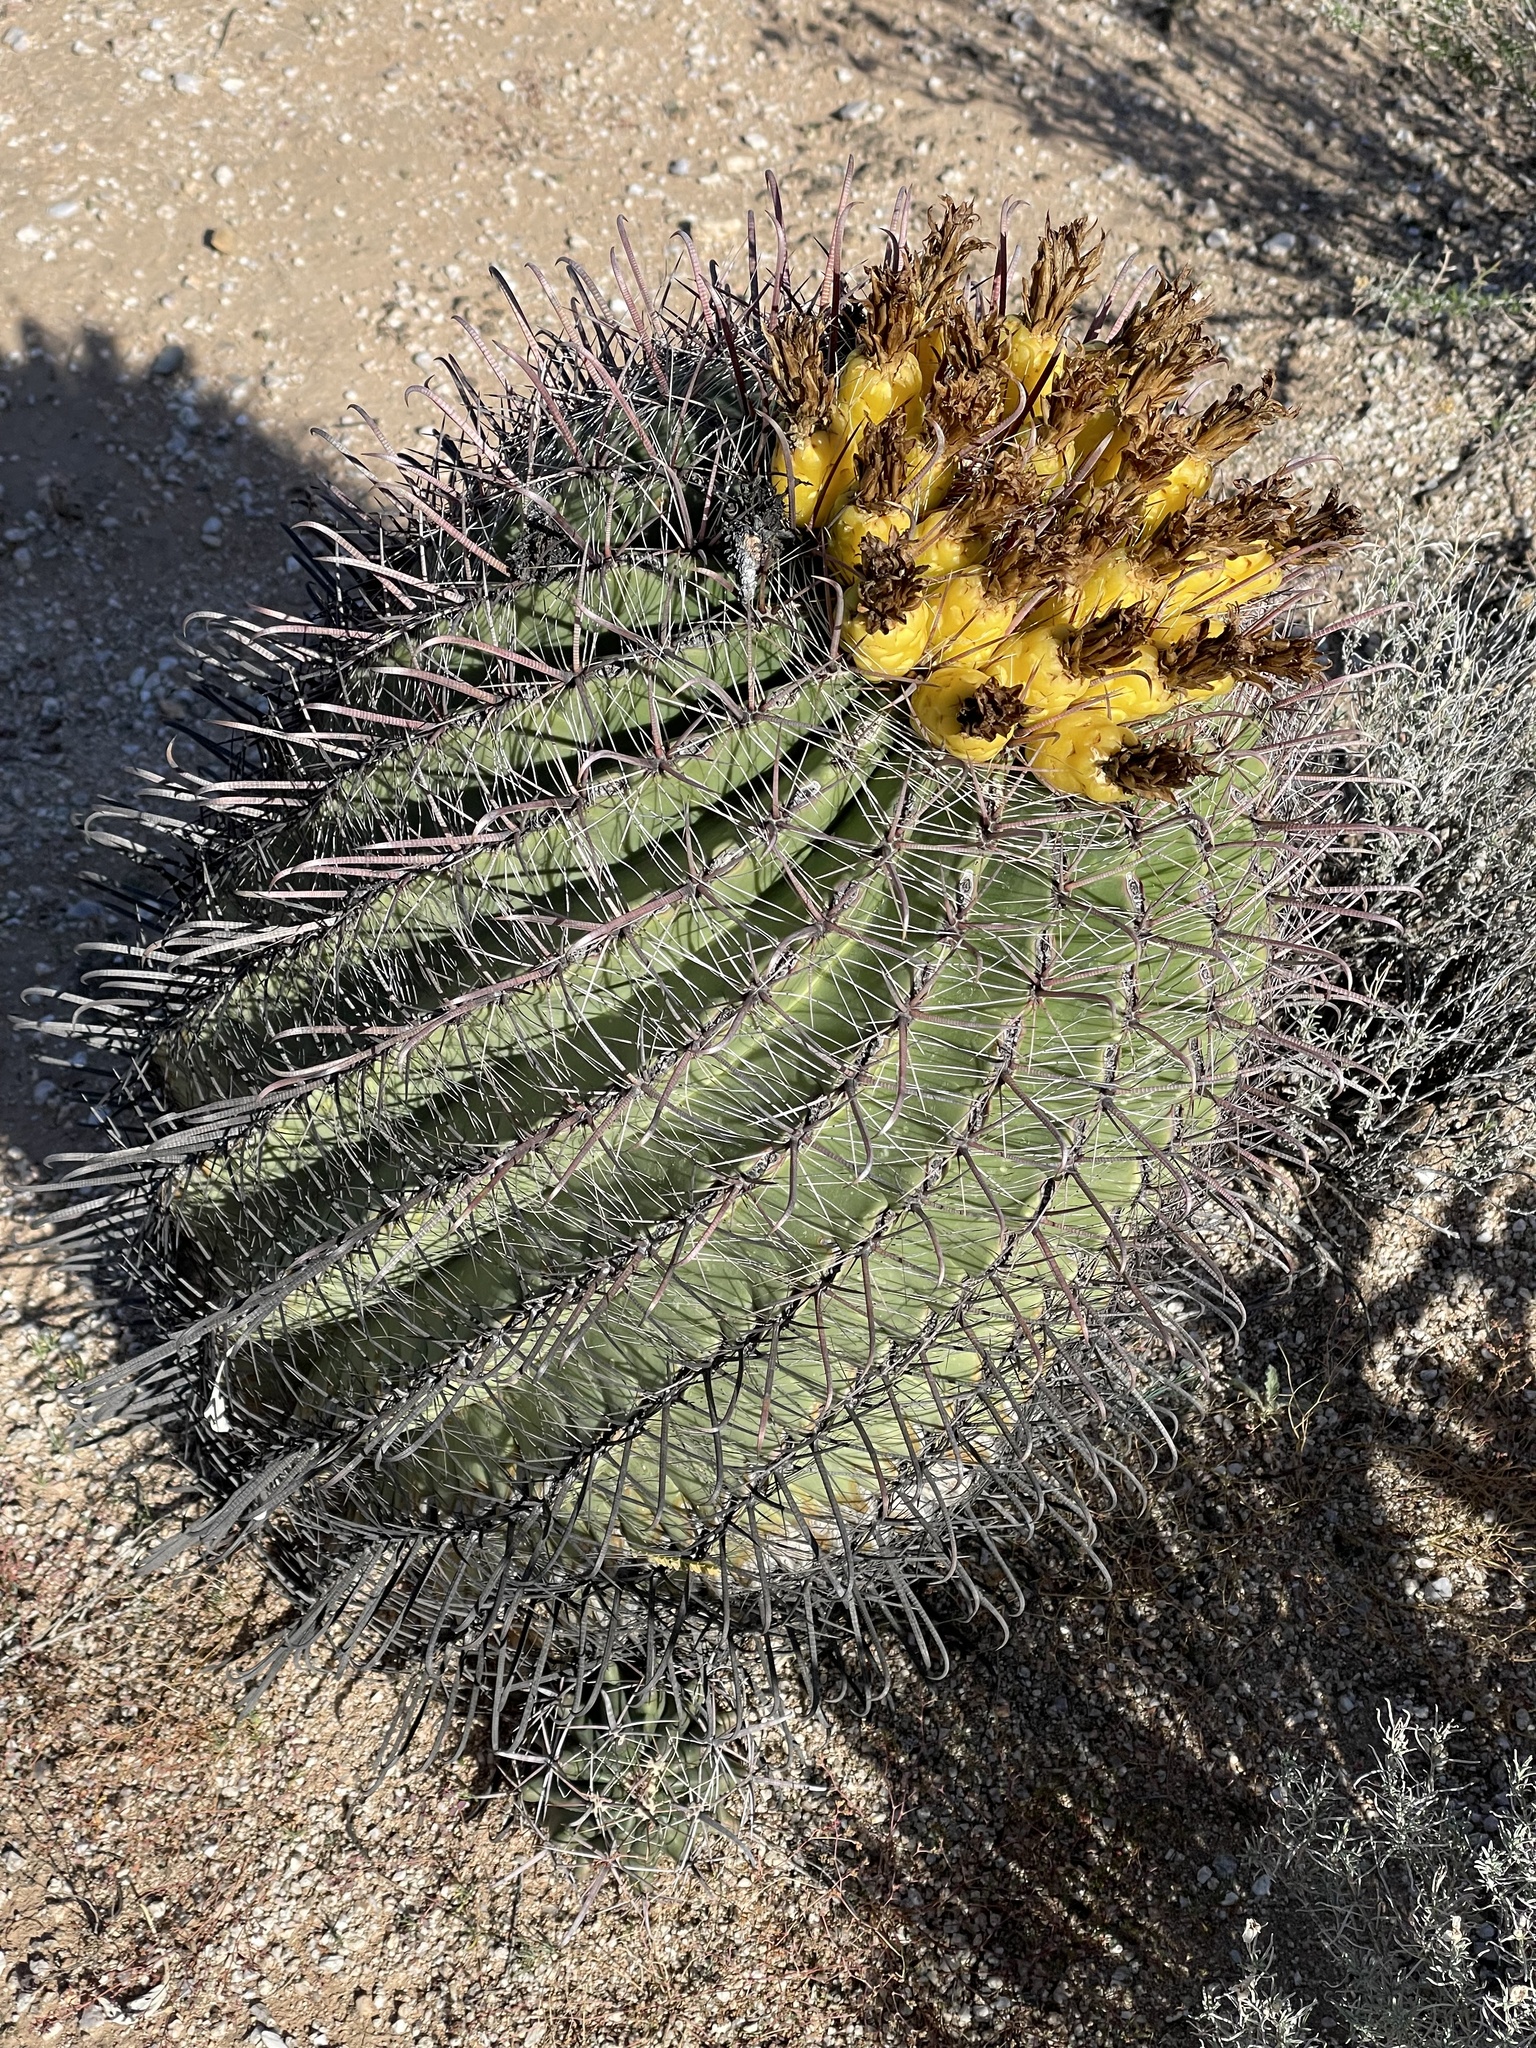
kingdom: Plantae
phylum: Tracheophyta
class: Magnoliopsida
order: Caryophyllales
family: Cactaceae
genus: Ferocactus
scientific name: Ferocactus wislizeni
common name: Candy barrel cactus
